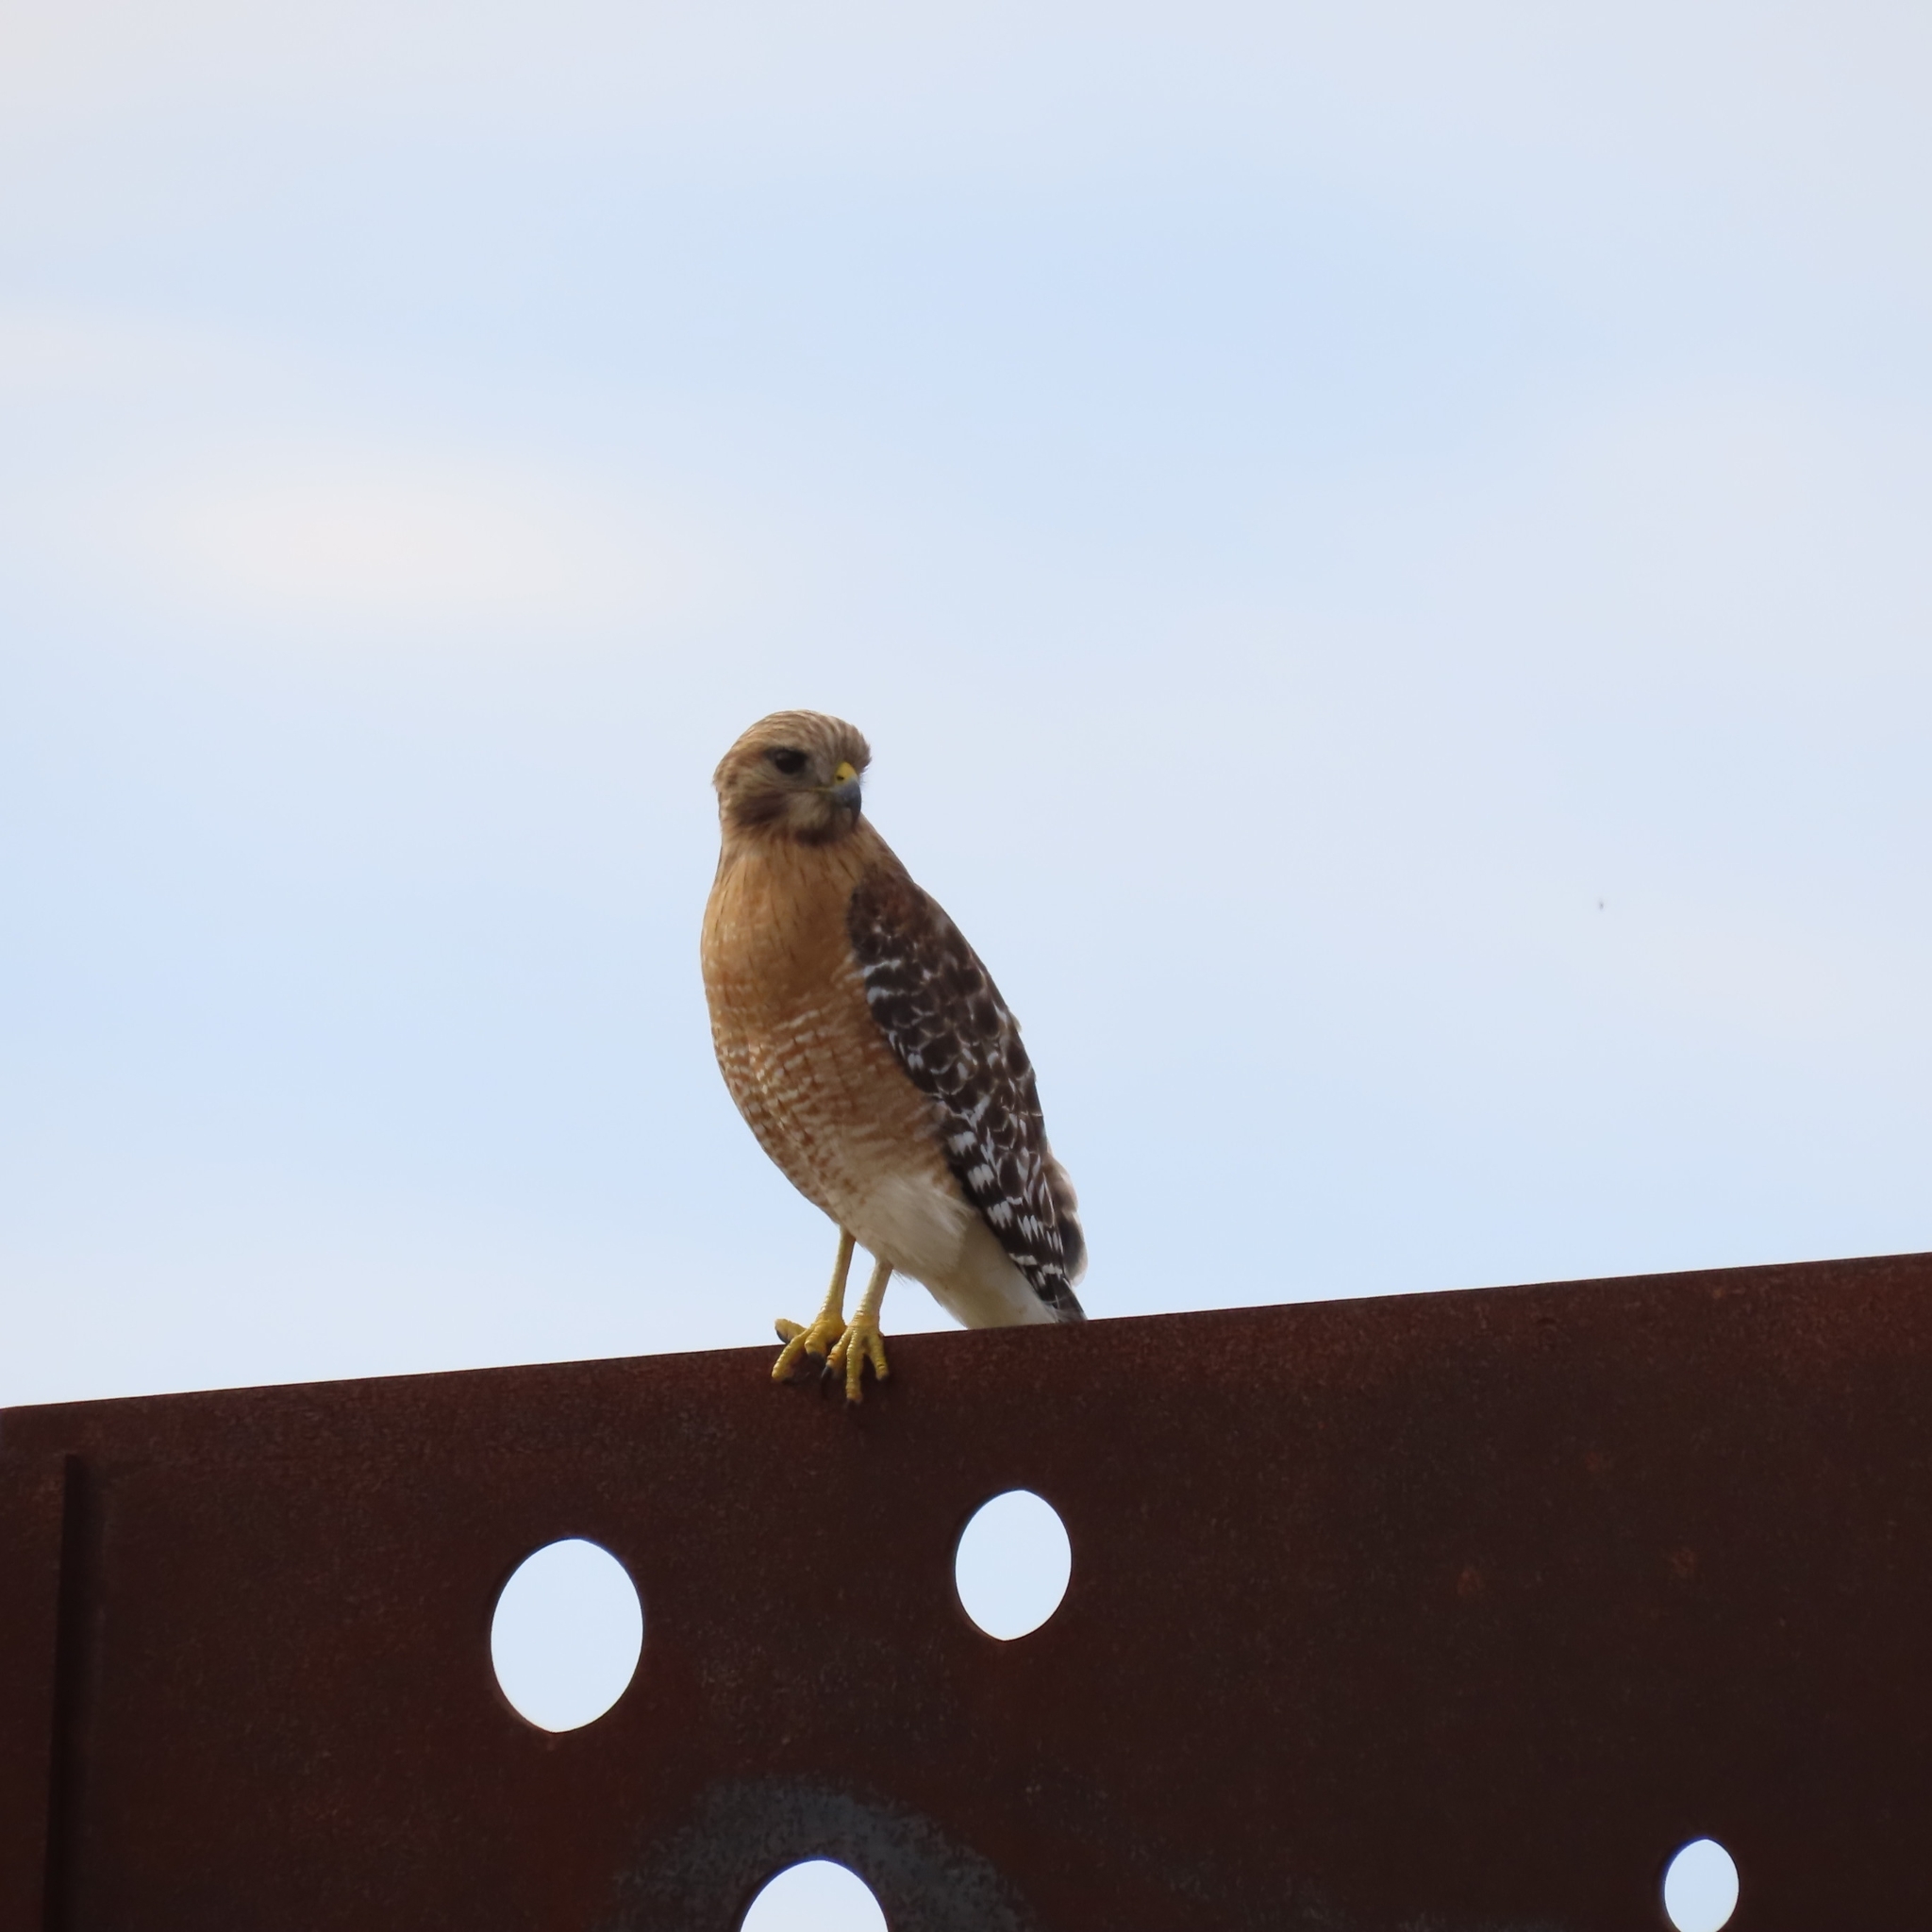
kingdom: Animalia
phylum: Chordata
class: Aves
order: Accipitriformes
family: Accipitridae
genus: Buteo
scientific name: Buteo lineatus
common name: Red-shouldered hawk
